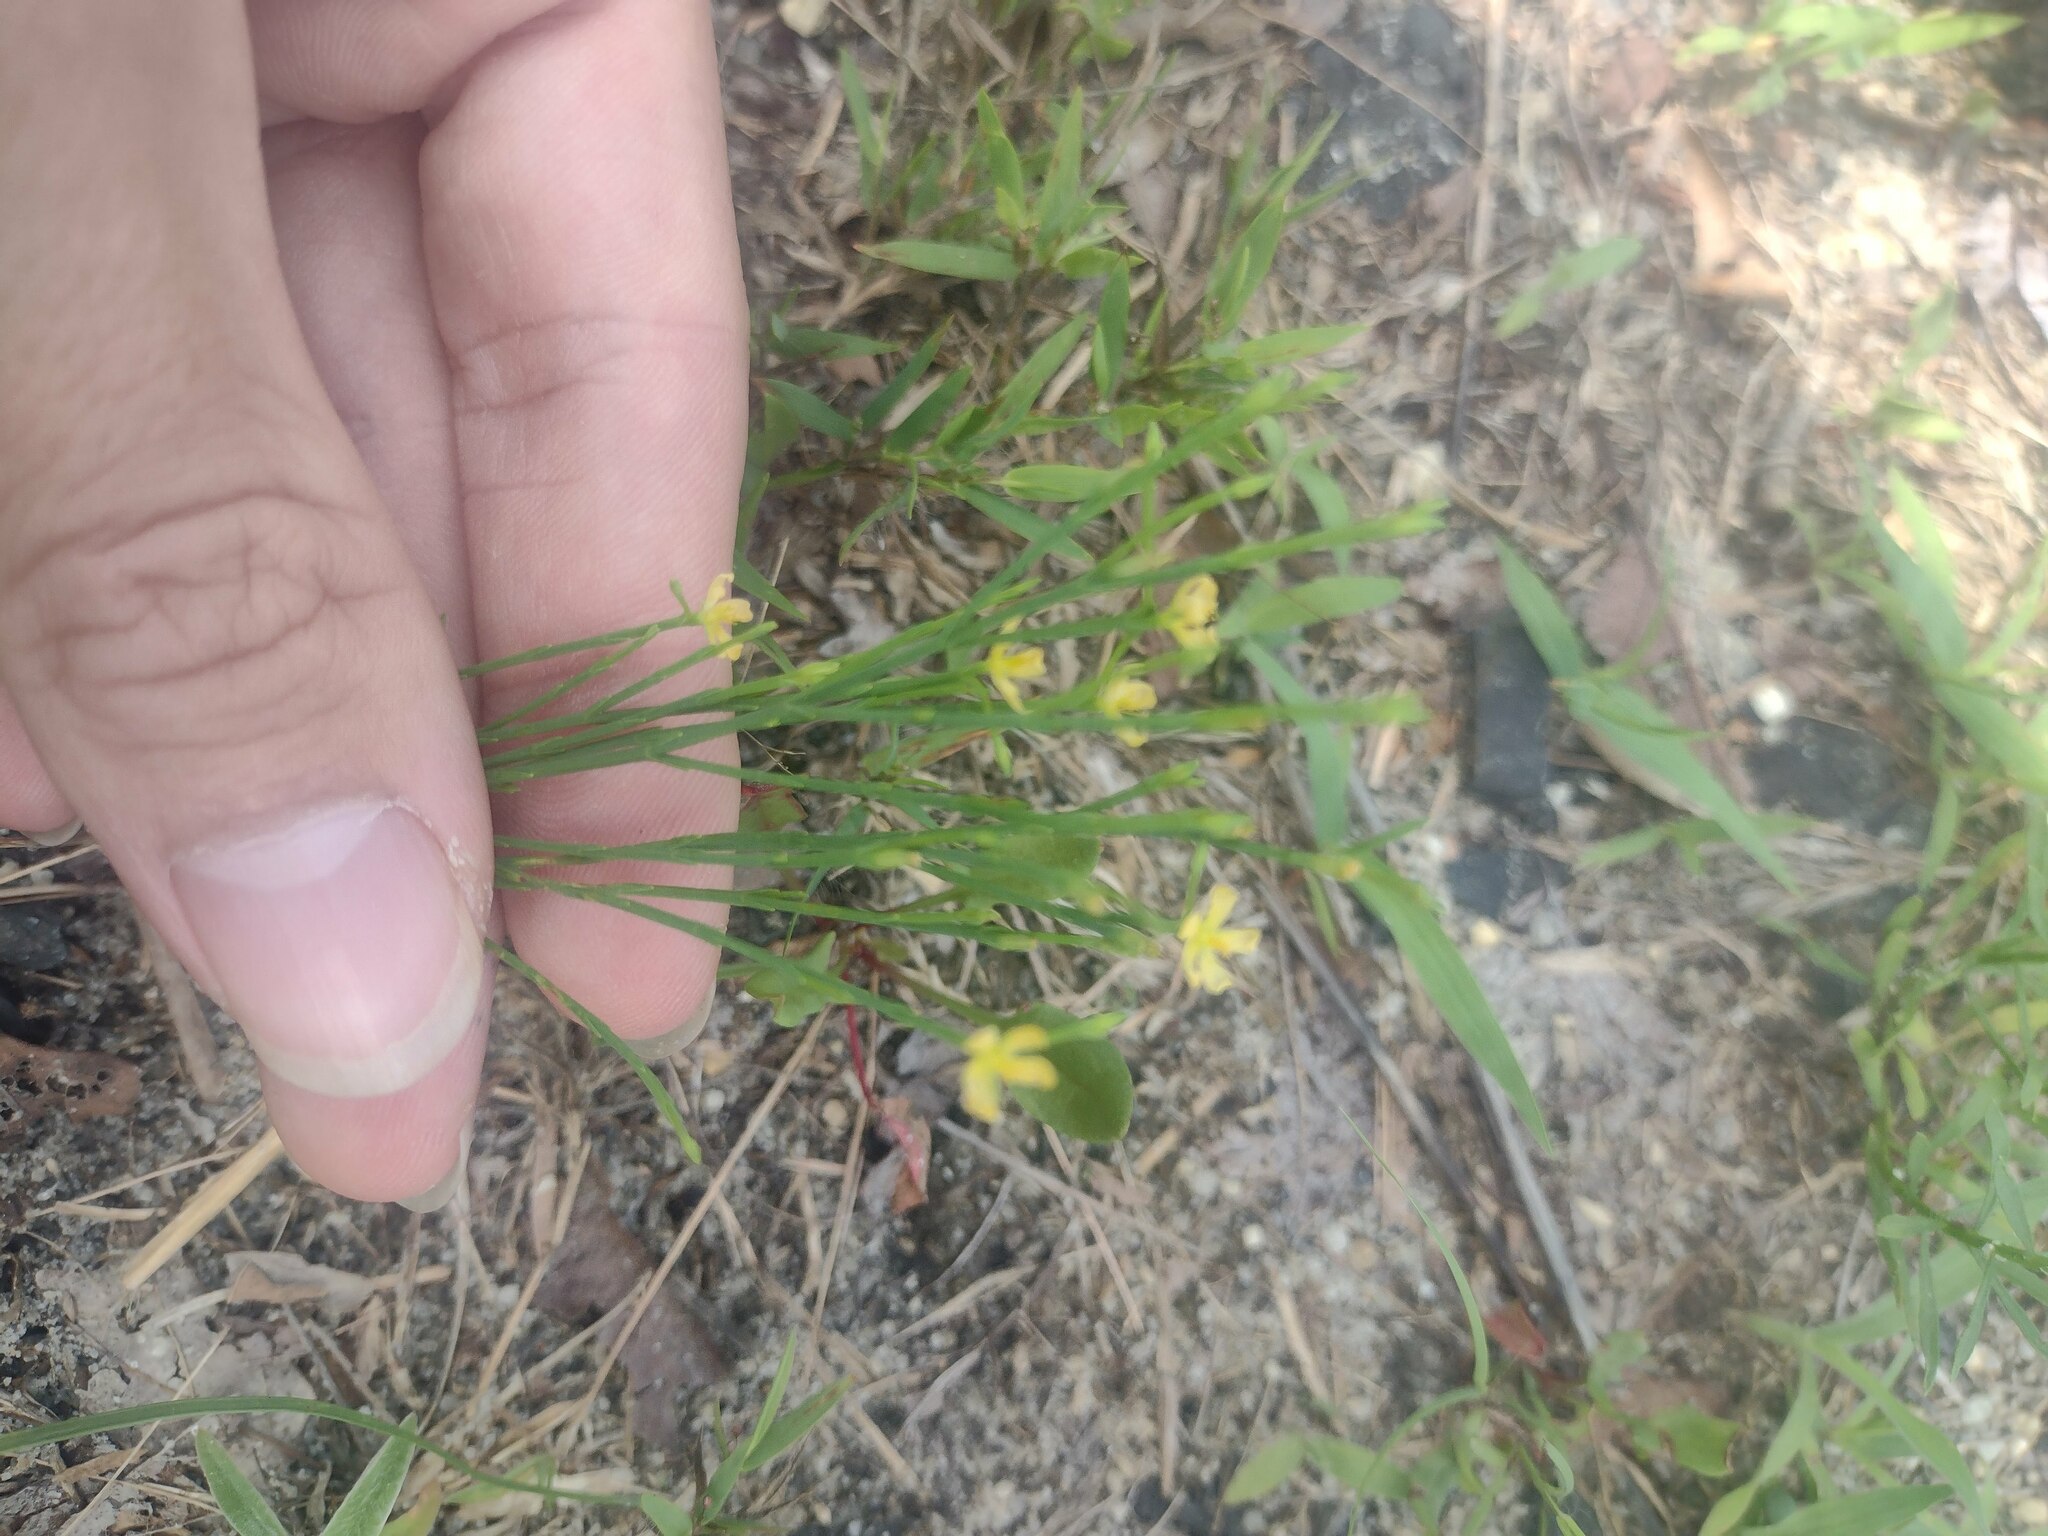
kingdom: Plantae
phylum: Tracheophyta
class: Magnoliopsida
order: Malpighiales
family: Hypericaceae
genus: Hypericum
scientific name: Hypericum gentianoides
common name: Gentian-leaved st. john's-wort
